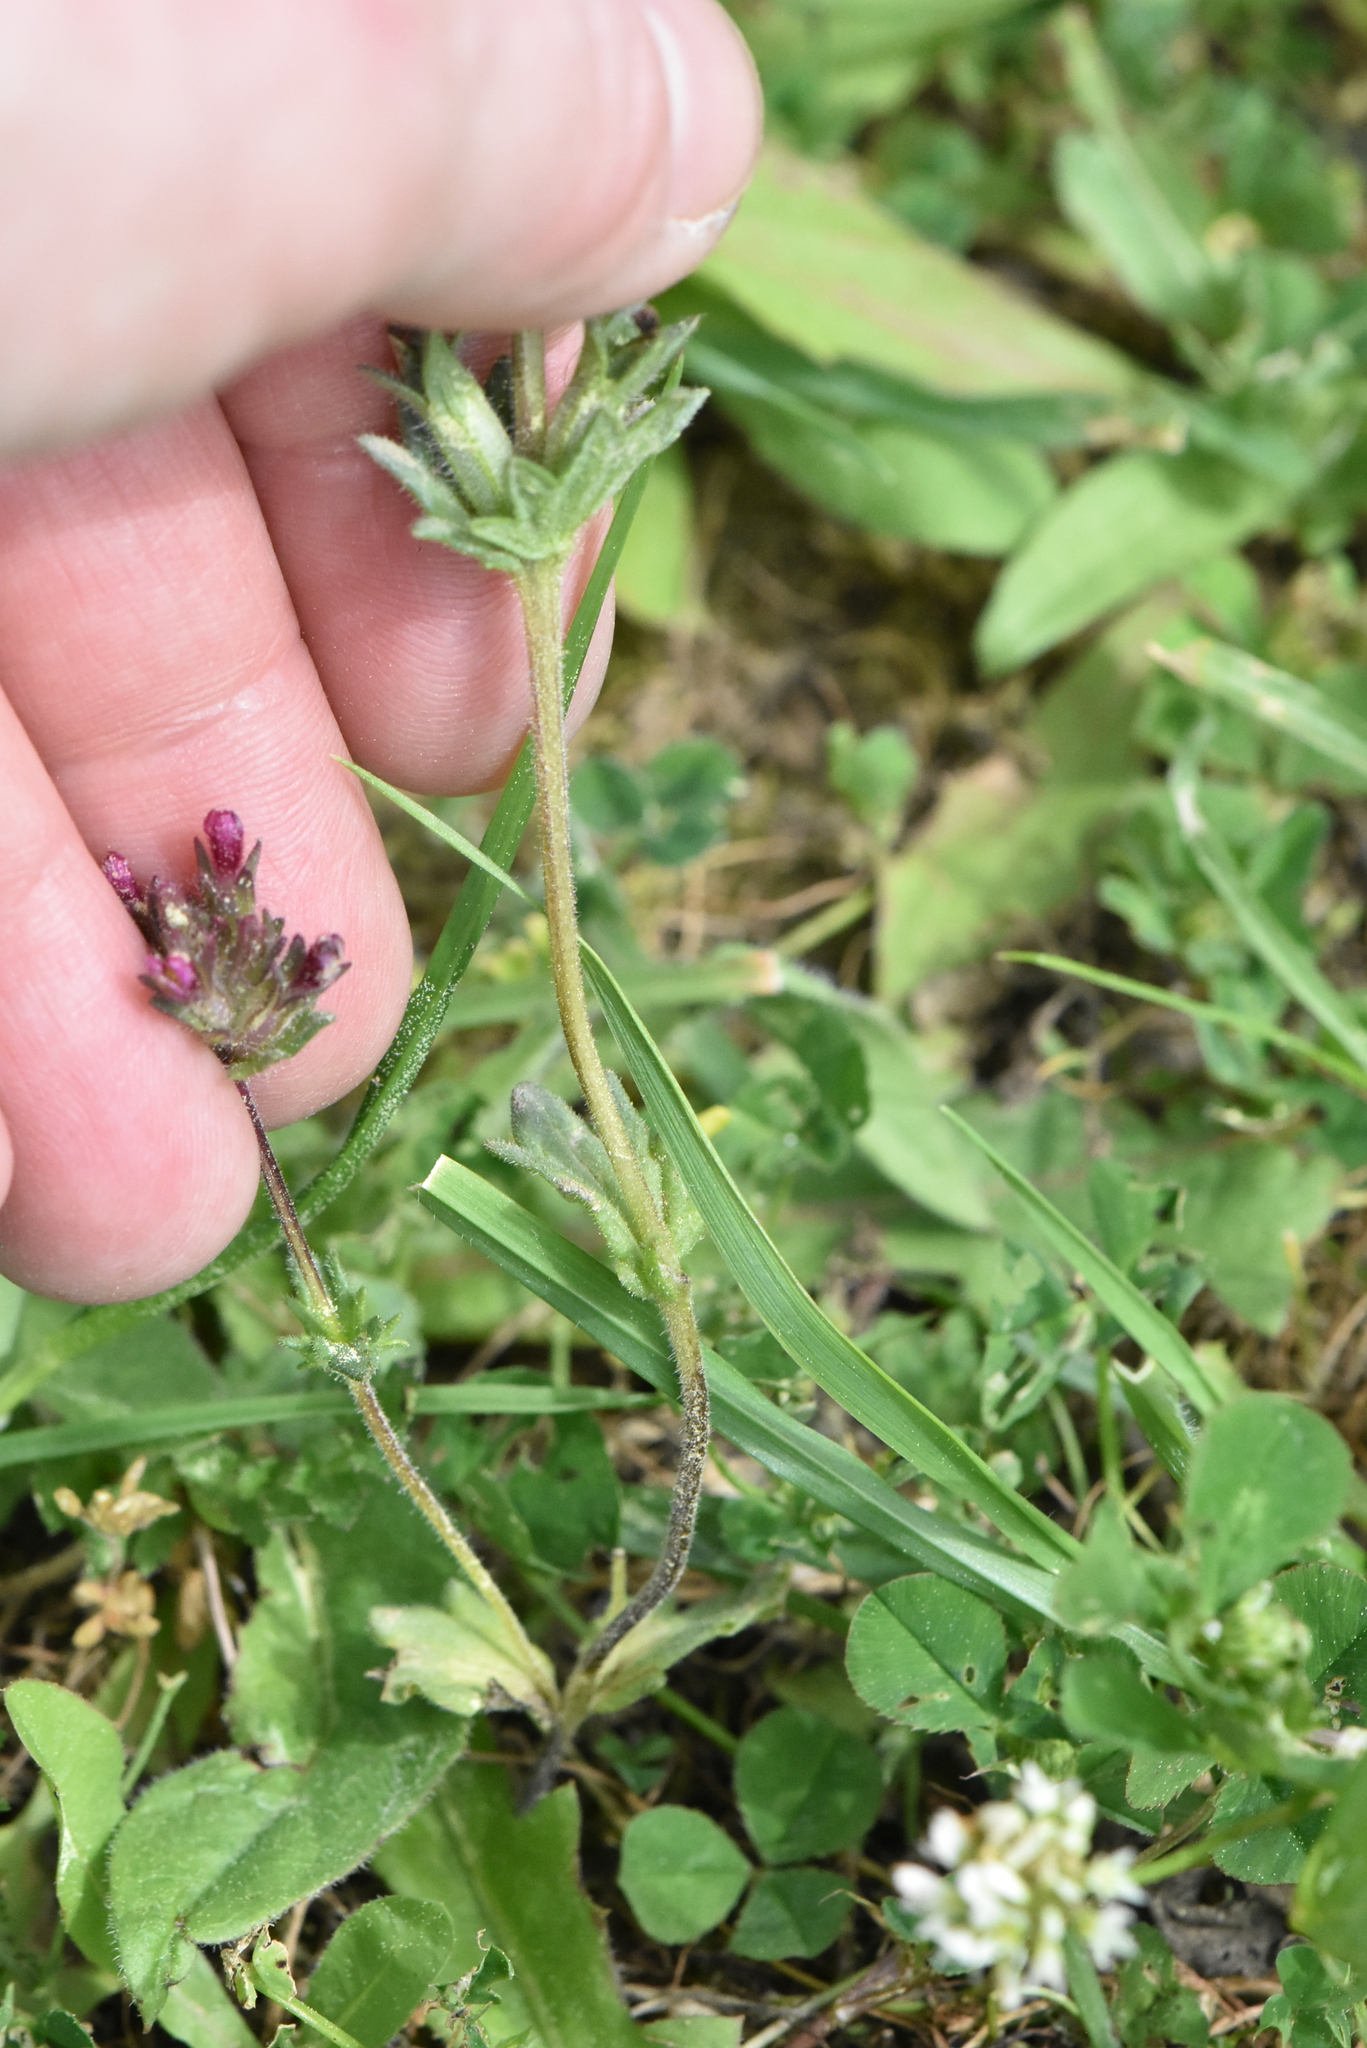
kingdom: Plantae
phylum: Tracheophyta
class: Magnoliopsida
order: Lamiales
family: Orobanchaceae
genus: Parentucellia
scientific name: Parentucellia latifolia
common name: Broadleaf glandweed
